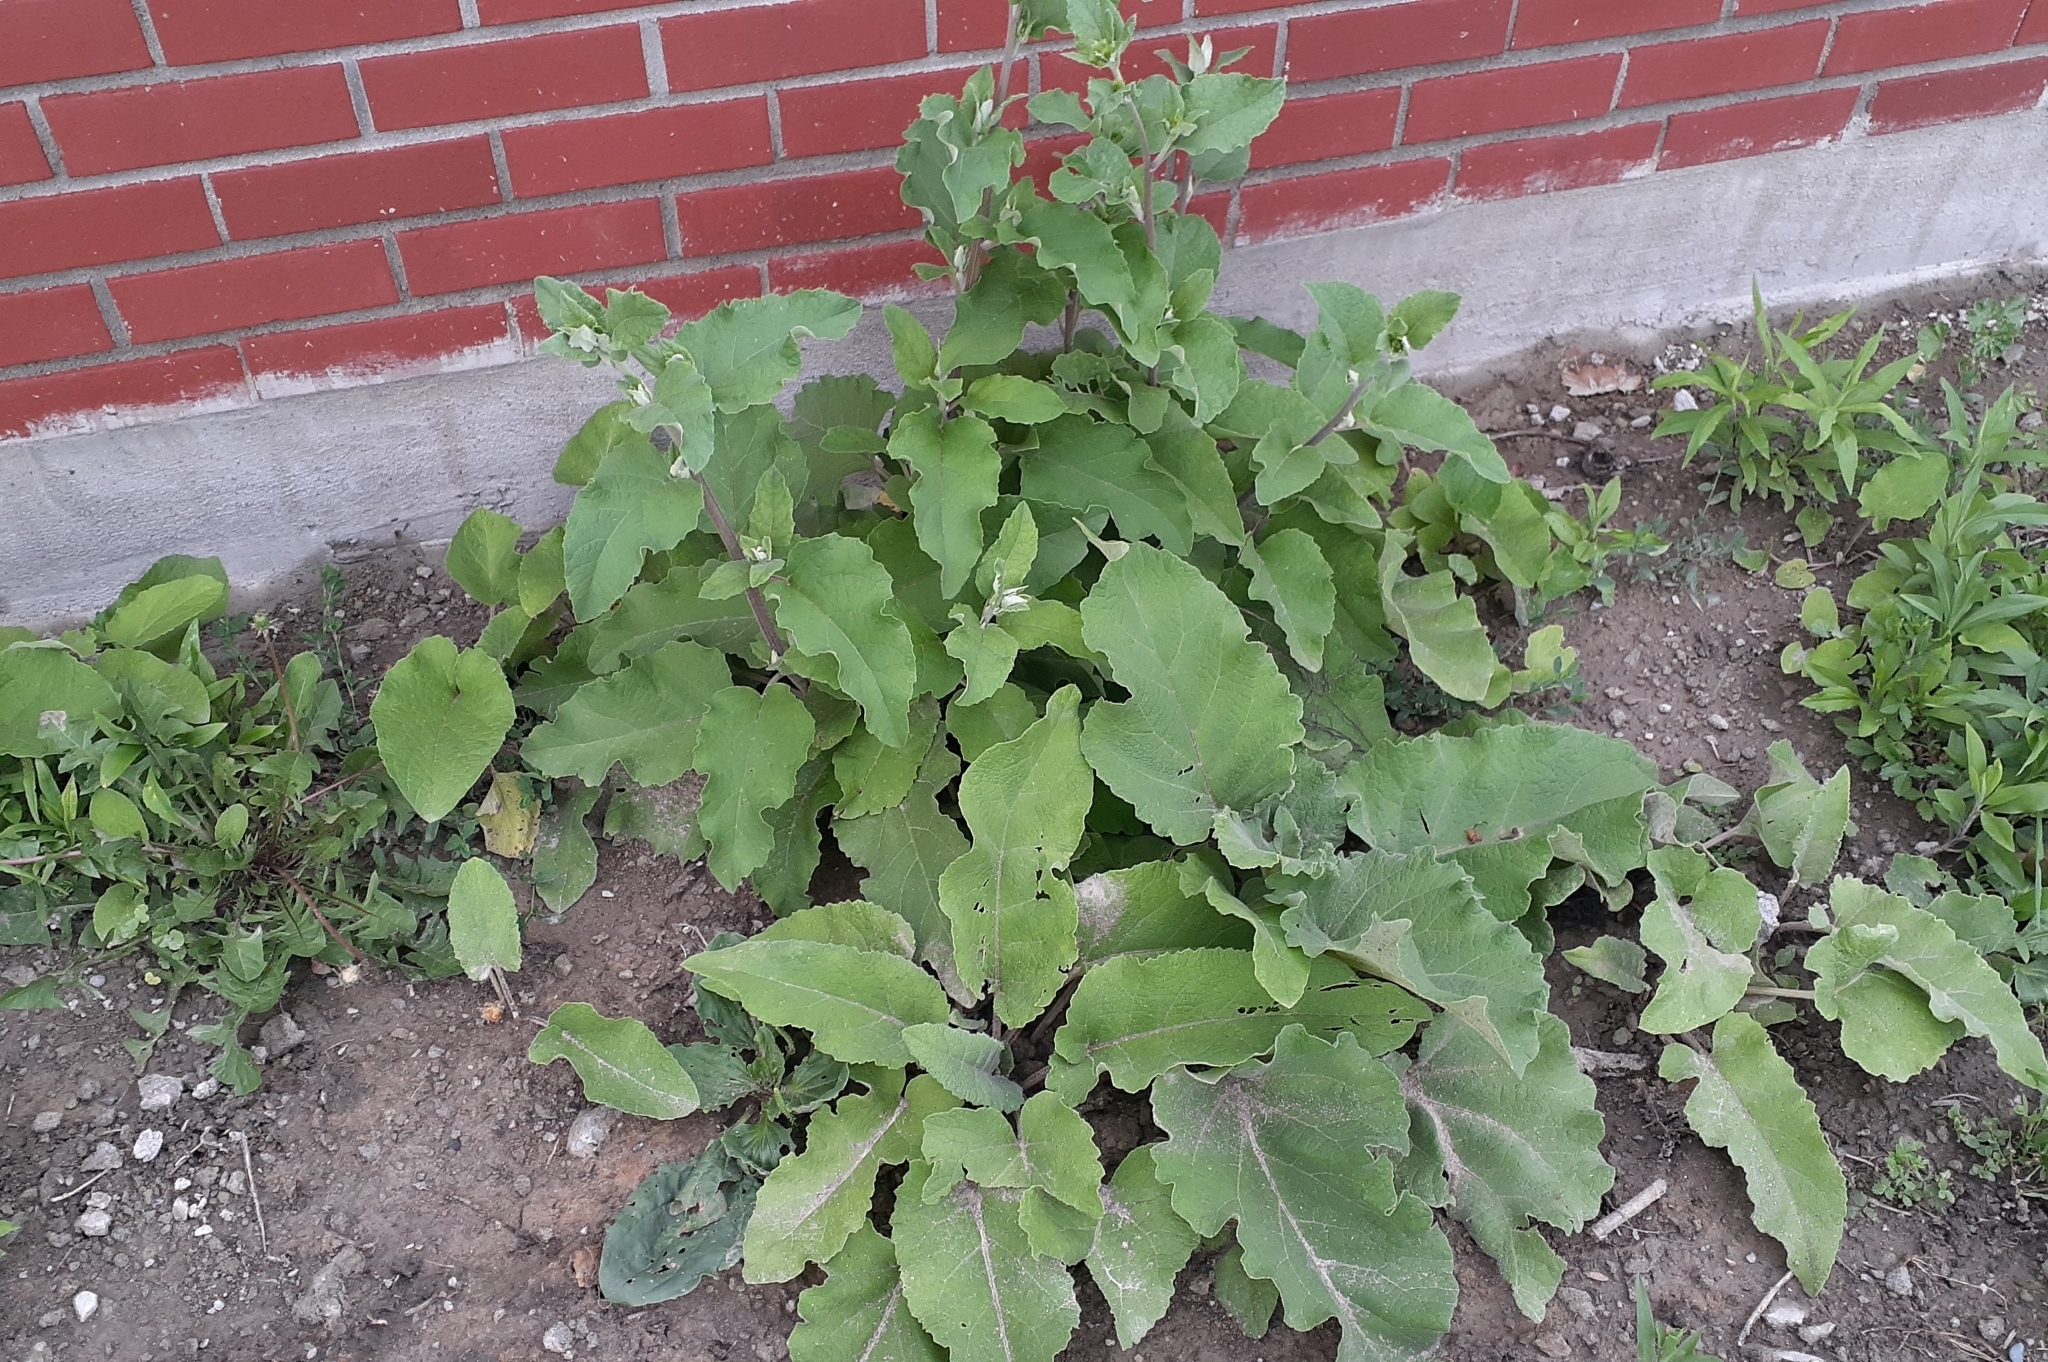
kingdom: Plantae
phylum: Tracheophyta
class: Magnoliopsida
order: Asterales
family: Asteraceae
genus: Arctium
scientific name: Arctium minus
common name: Lesser burdock
